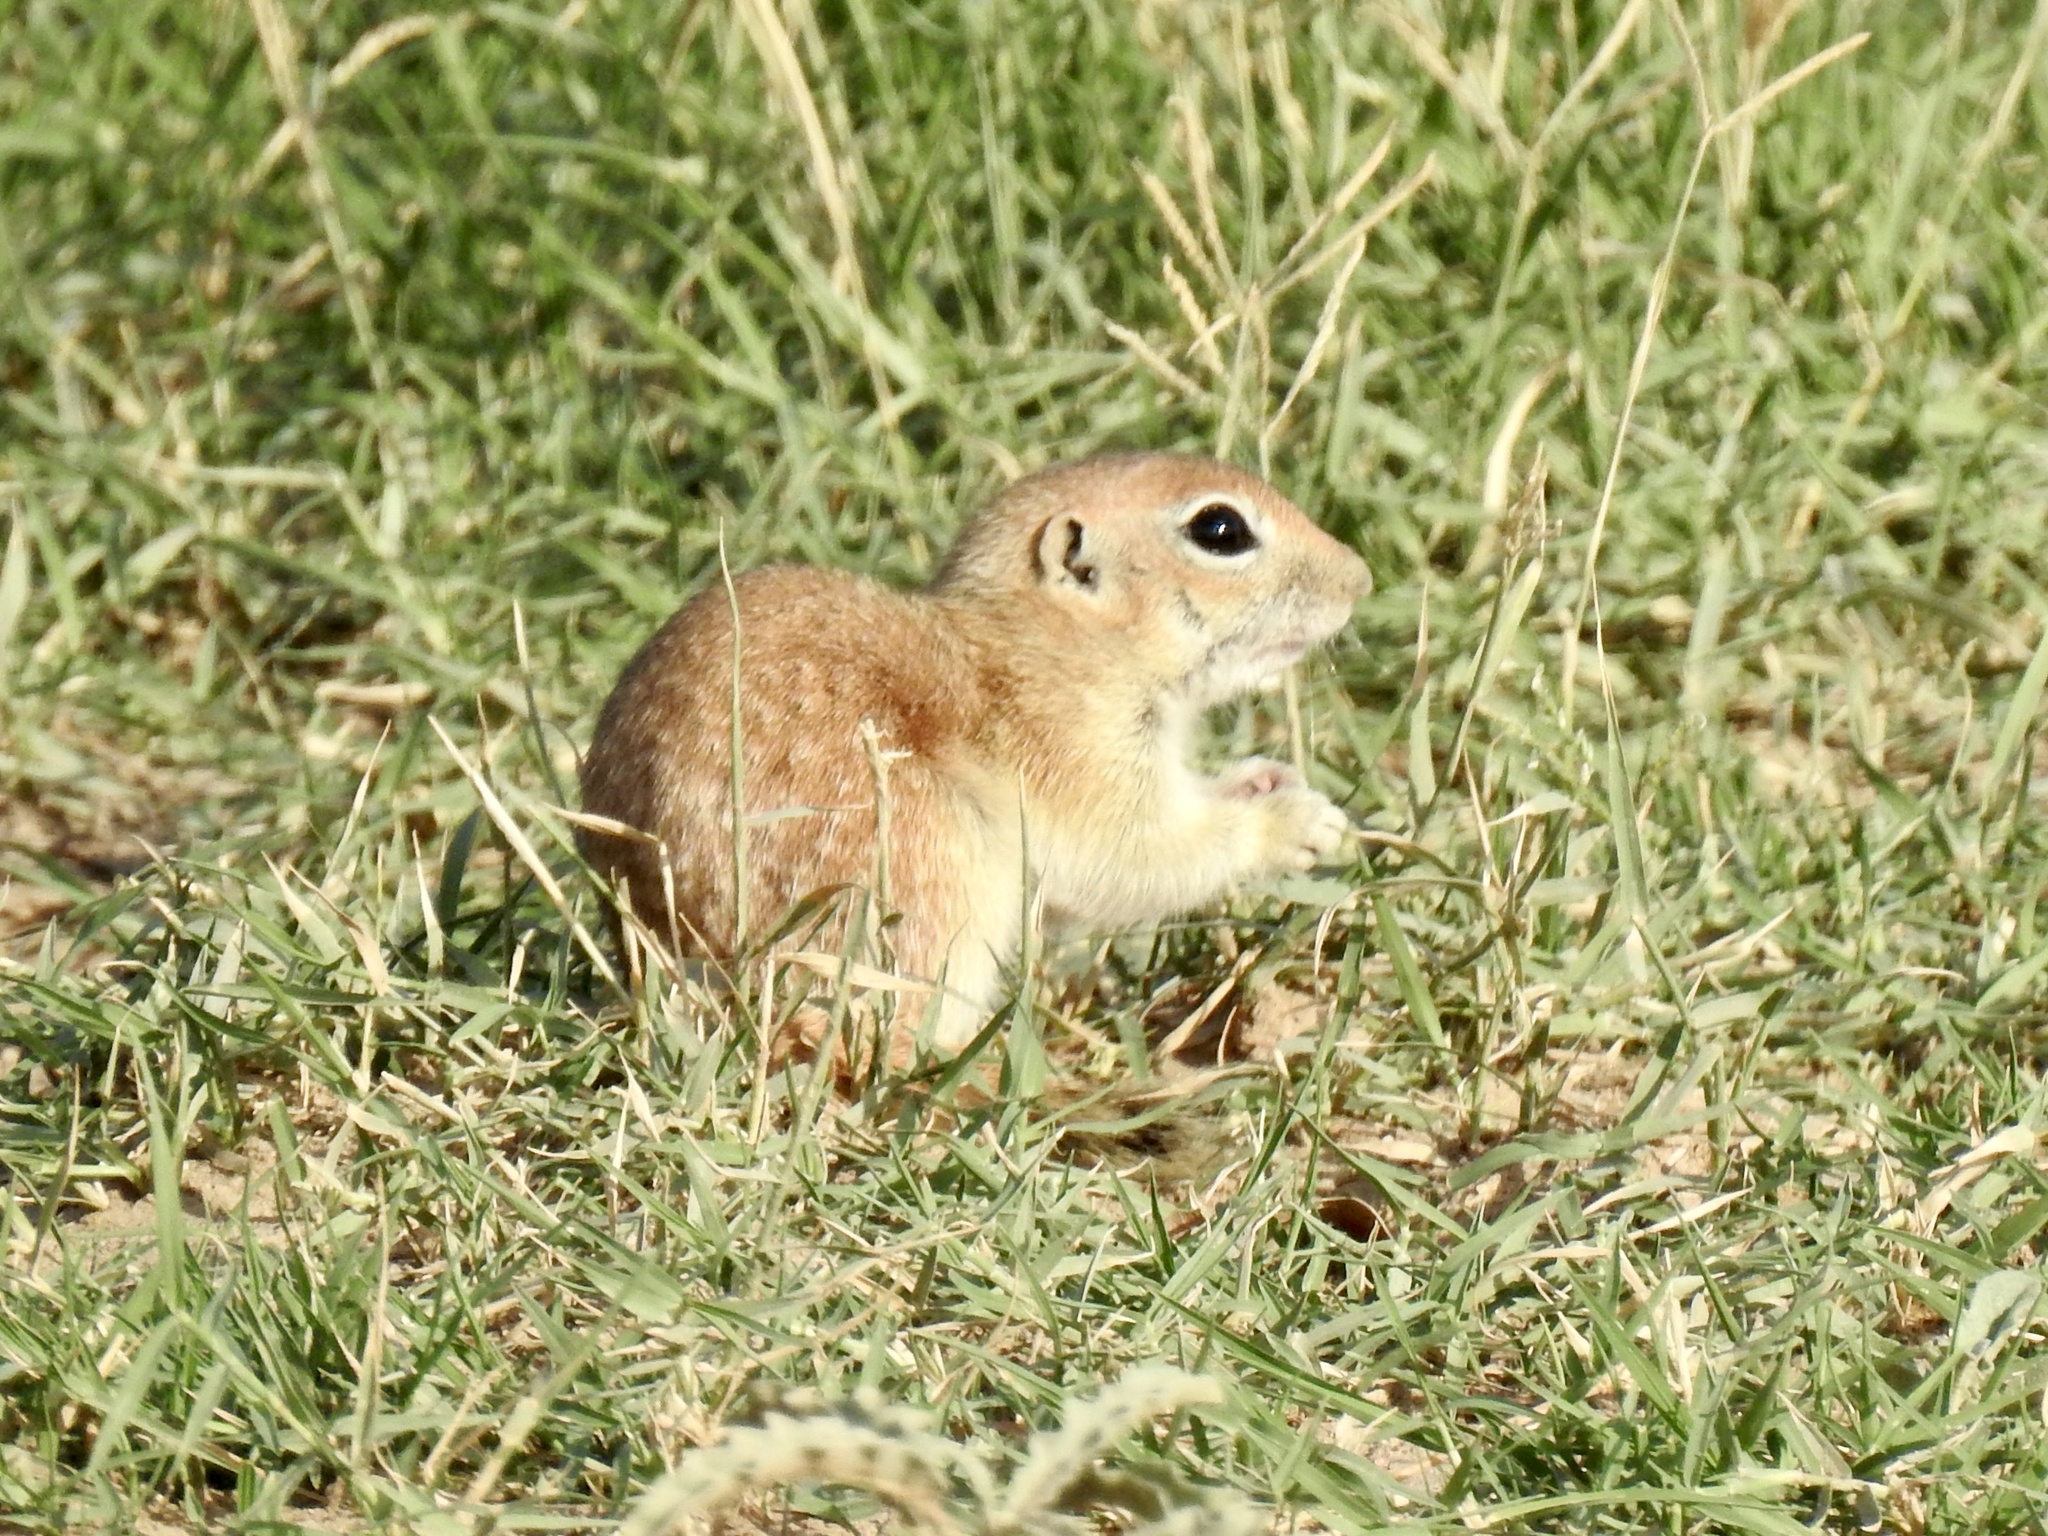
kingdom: Animalia
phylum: Chordata
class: Mammalia
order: Rodentia
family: Sciuridae
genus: Xerospermophilus
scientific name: Xerospermophilus spilosoma
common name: Spotted ground squirrel
